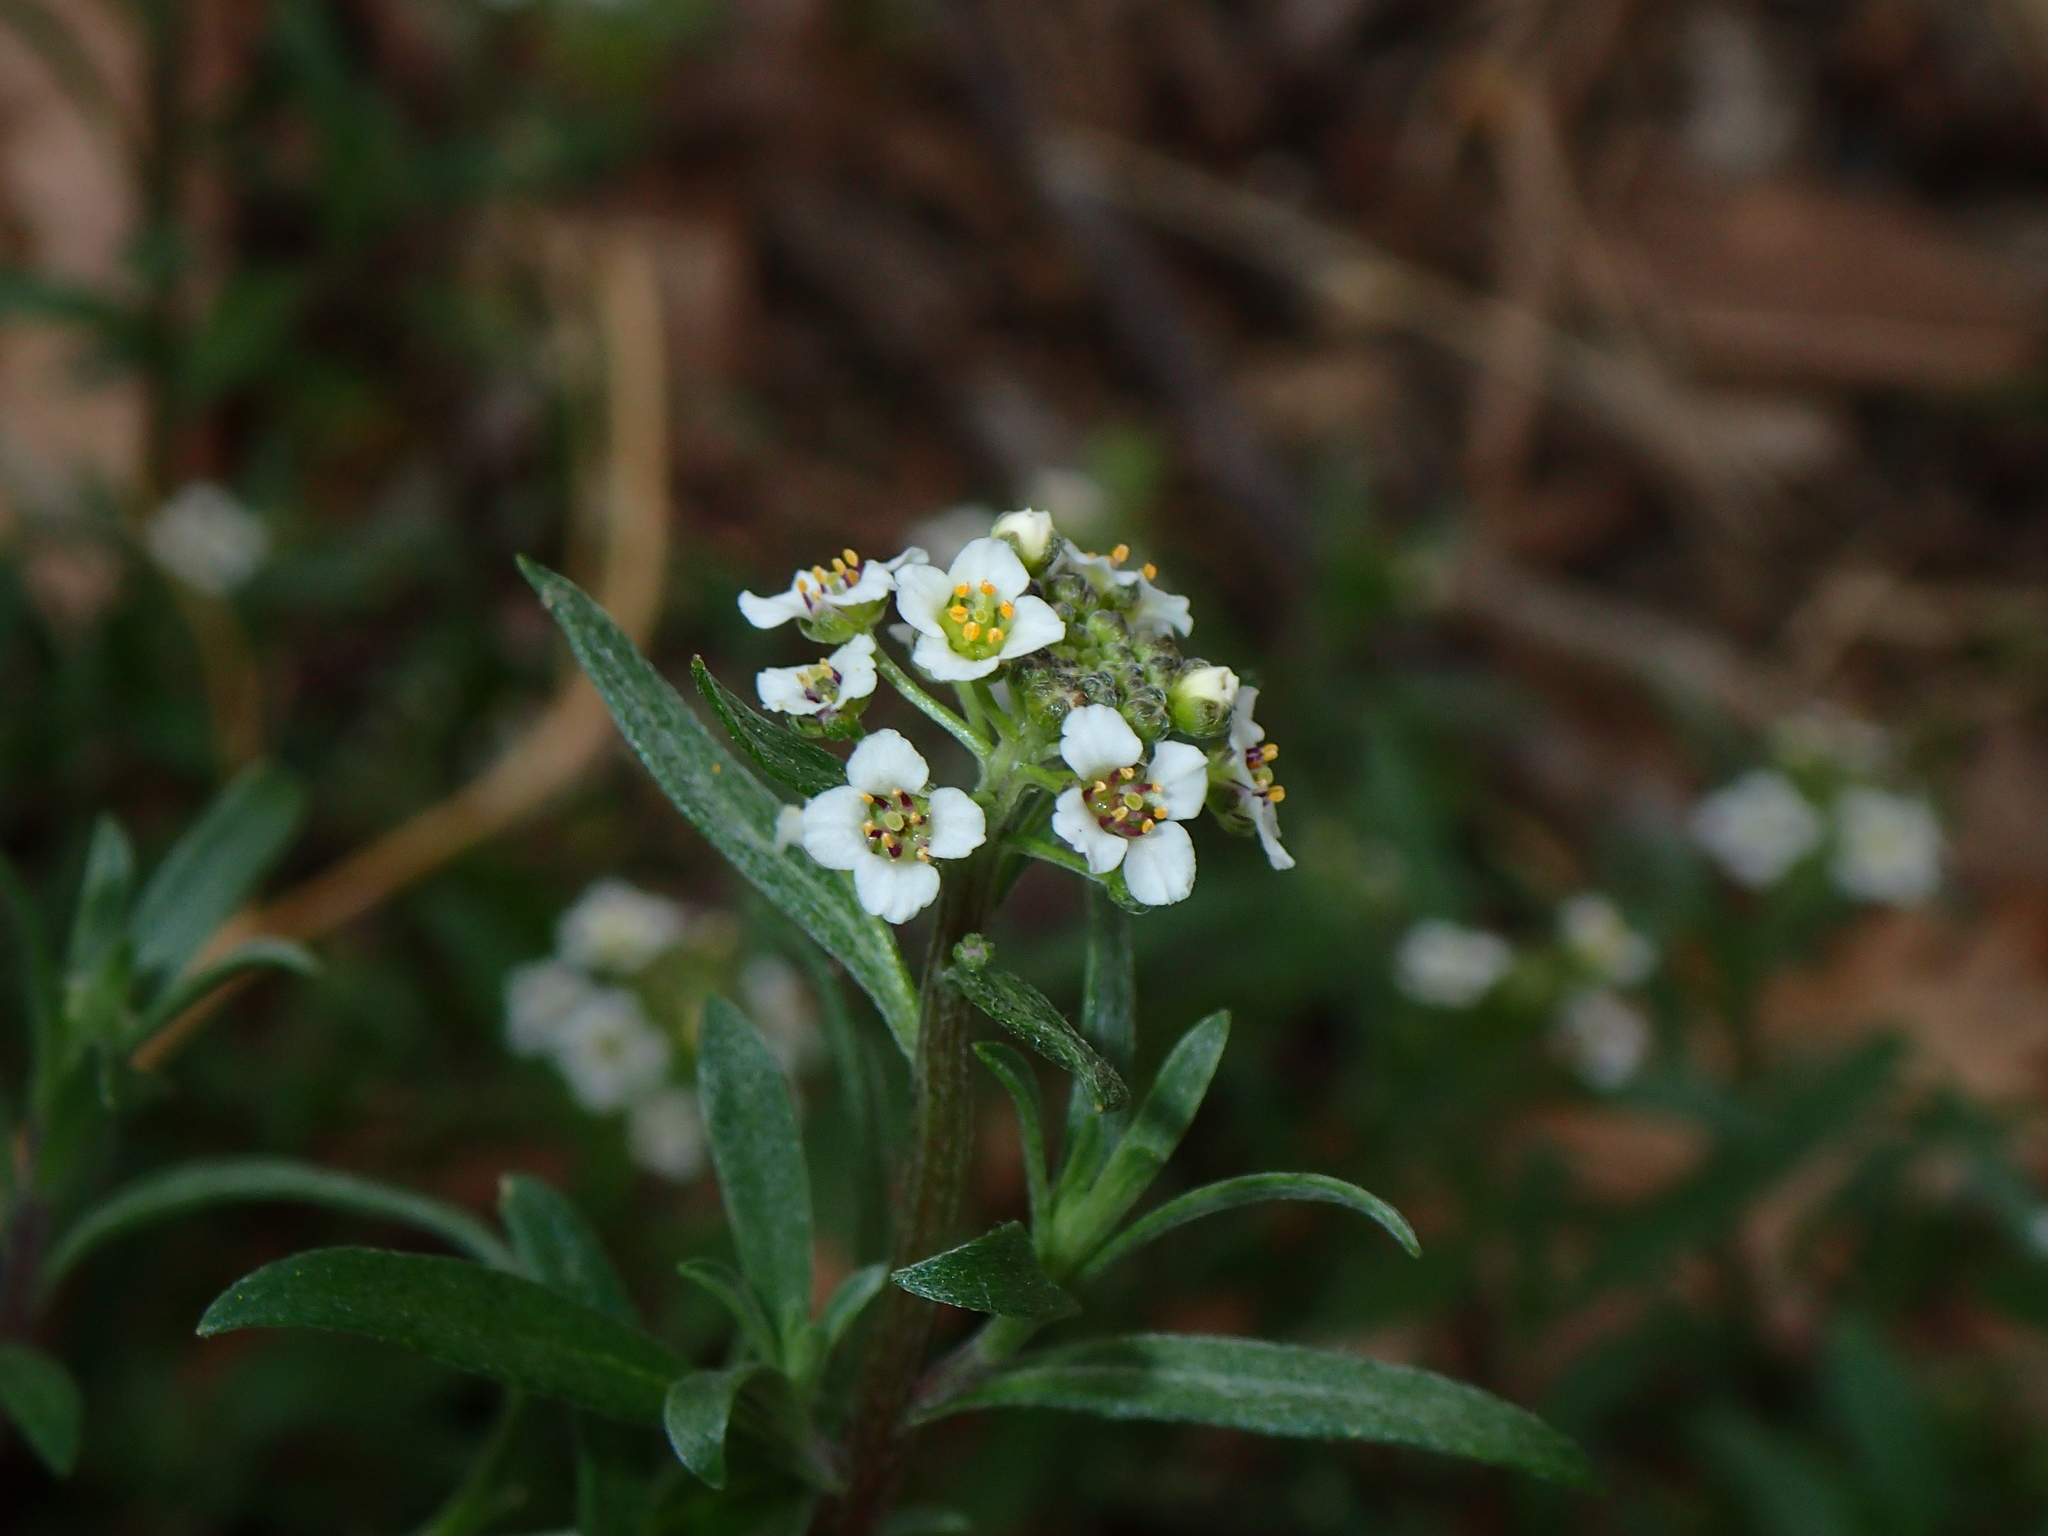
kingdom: Plantae
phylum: Tracheophyta
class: Magnoliopsida
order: Brassicales
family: Brassicaceae
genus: Lobularia
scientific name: Lobularia maritima
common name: Sweet alison
